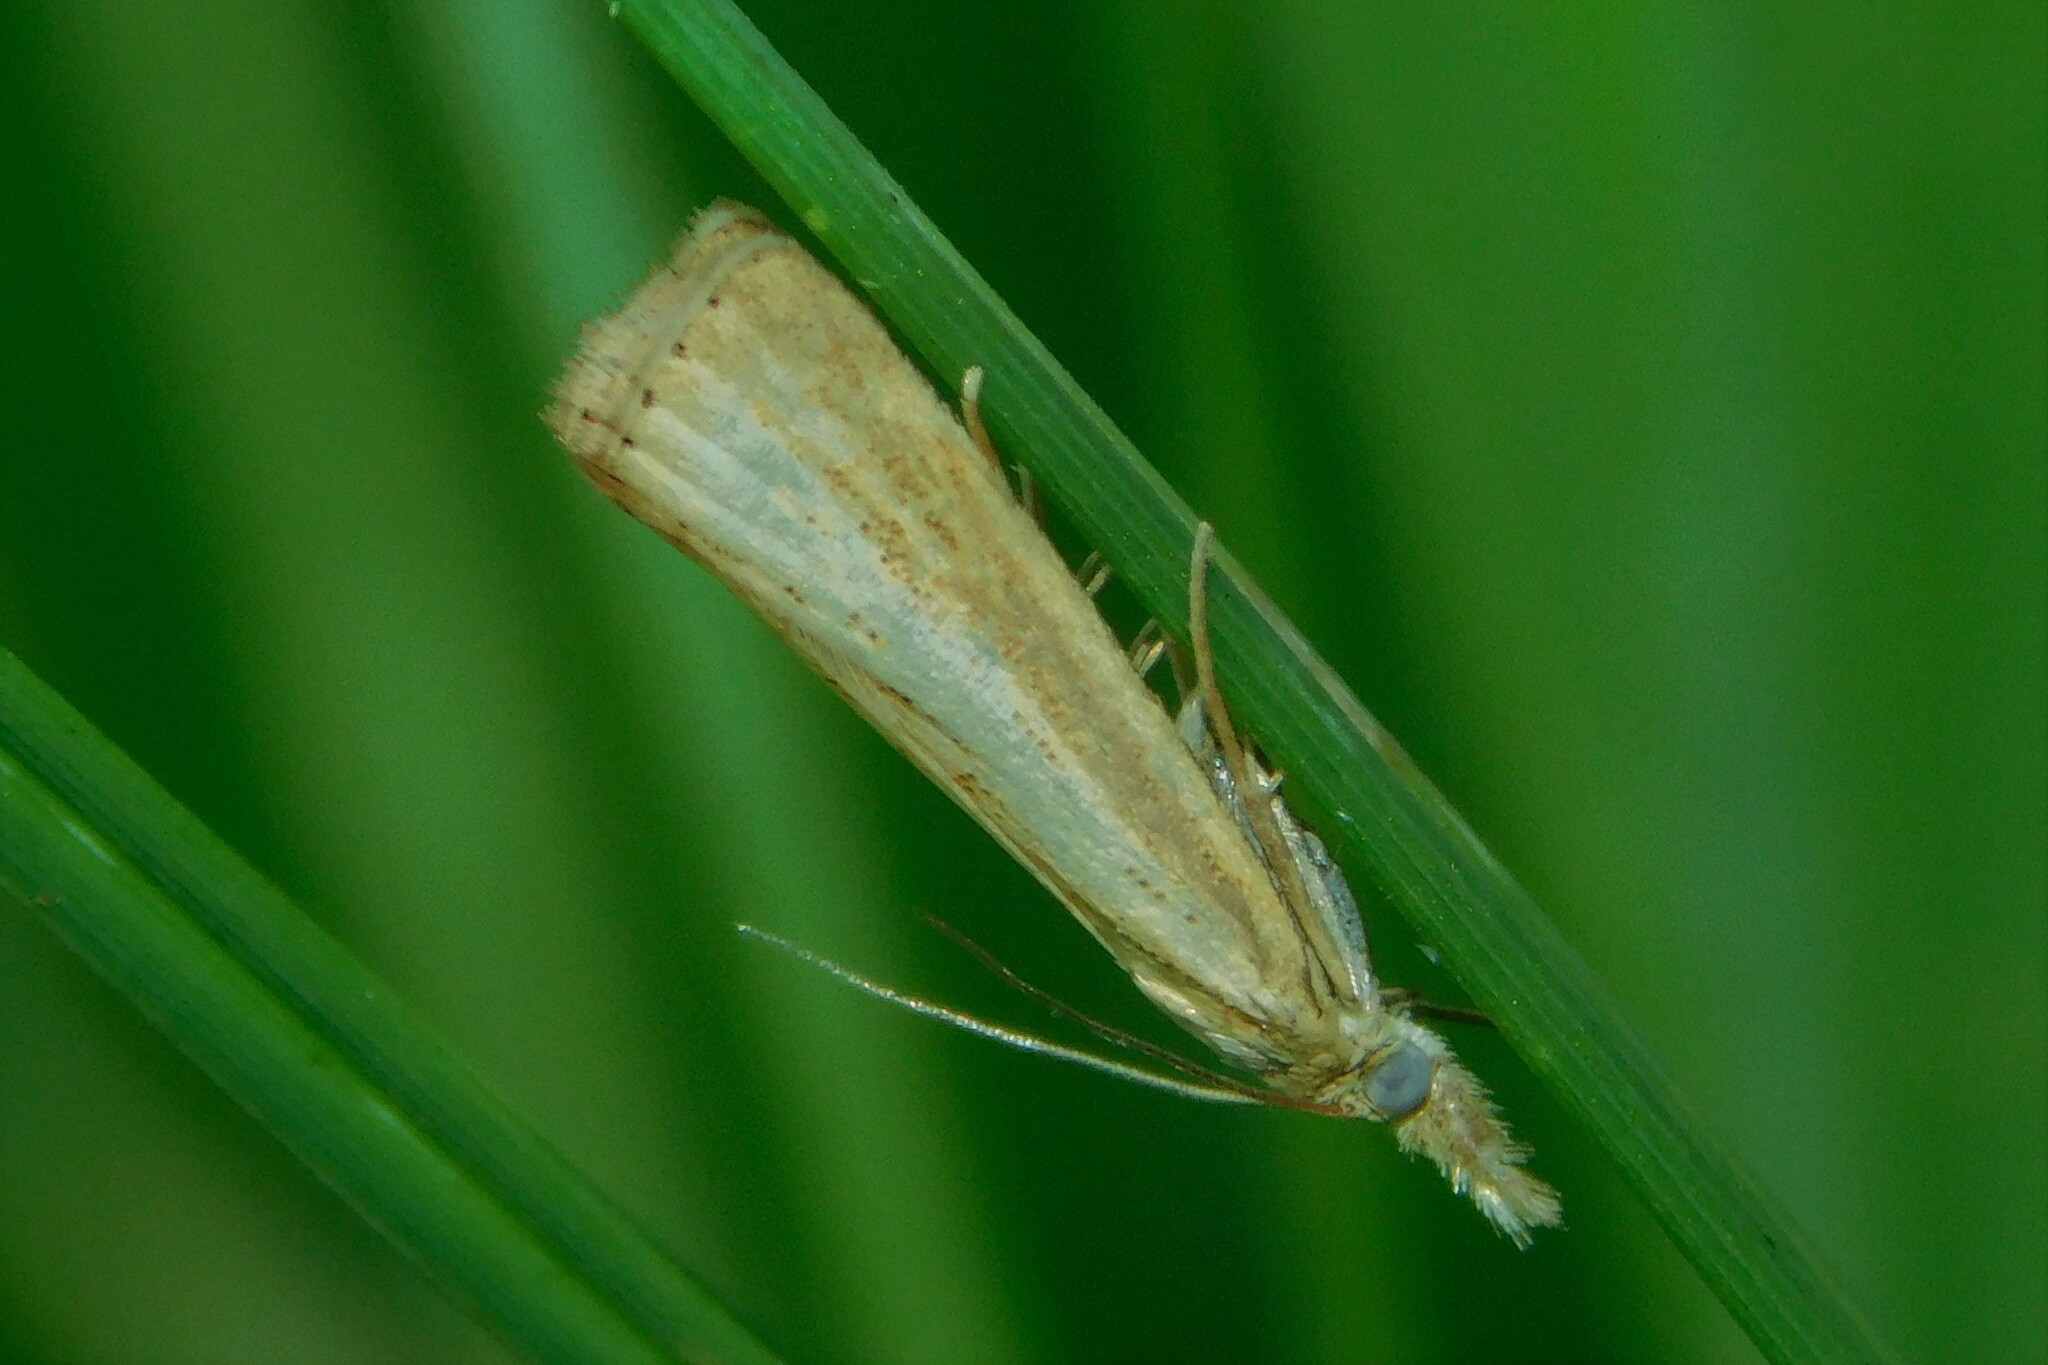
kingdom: Animalia
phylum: Arthropoda
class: Insecta
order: Lepidoptera
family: Crambidae
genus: Agriphila
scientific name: Agriphila straminella
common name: Straw grass-veneer
